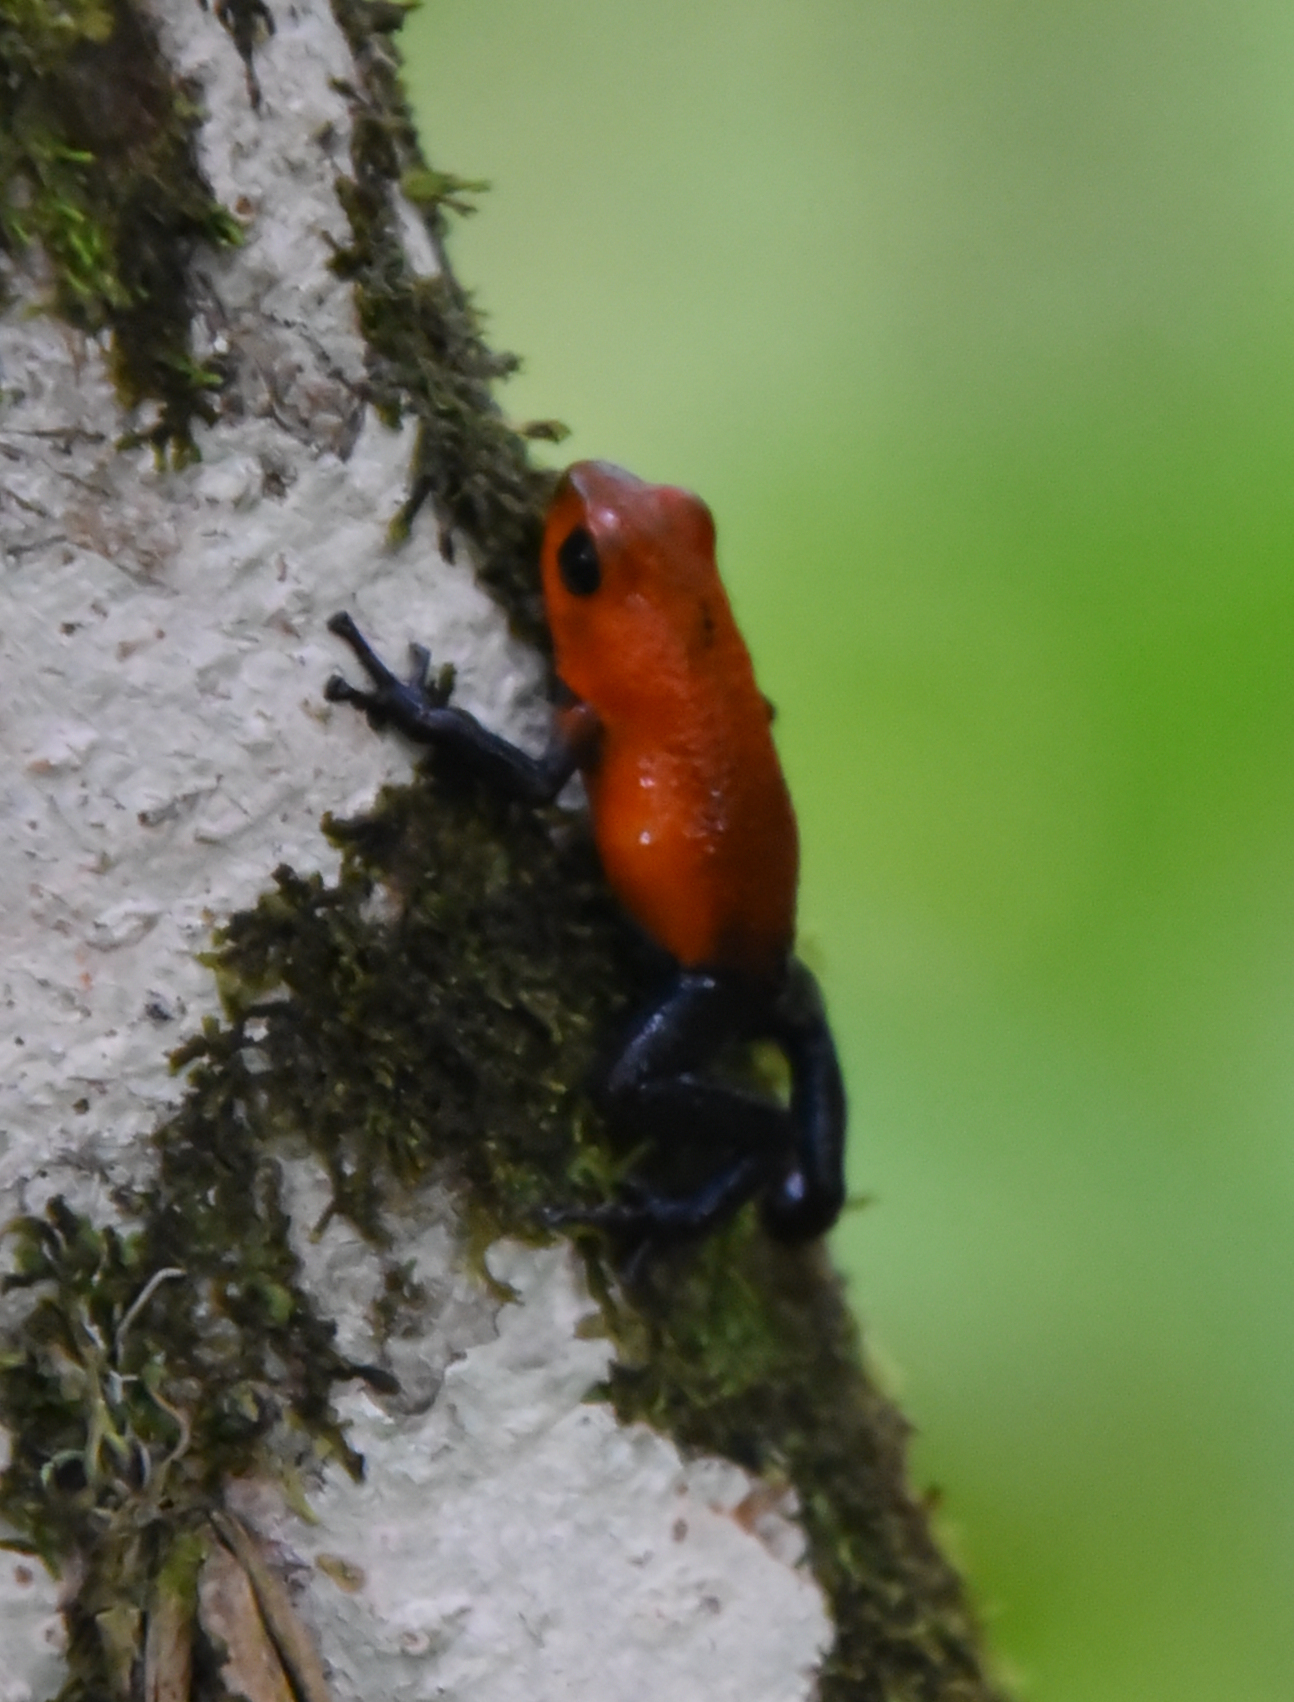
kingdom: Animalia
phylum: Chordata
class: Amphibia
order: Anura
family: Dendrobatidae
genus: Oophaga
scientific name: Oophaga pumilio
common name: Flaming poison frog
